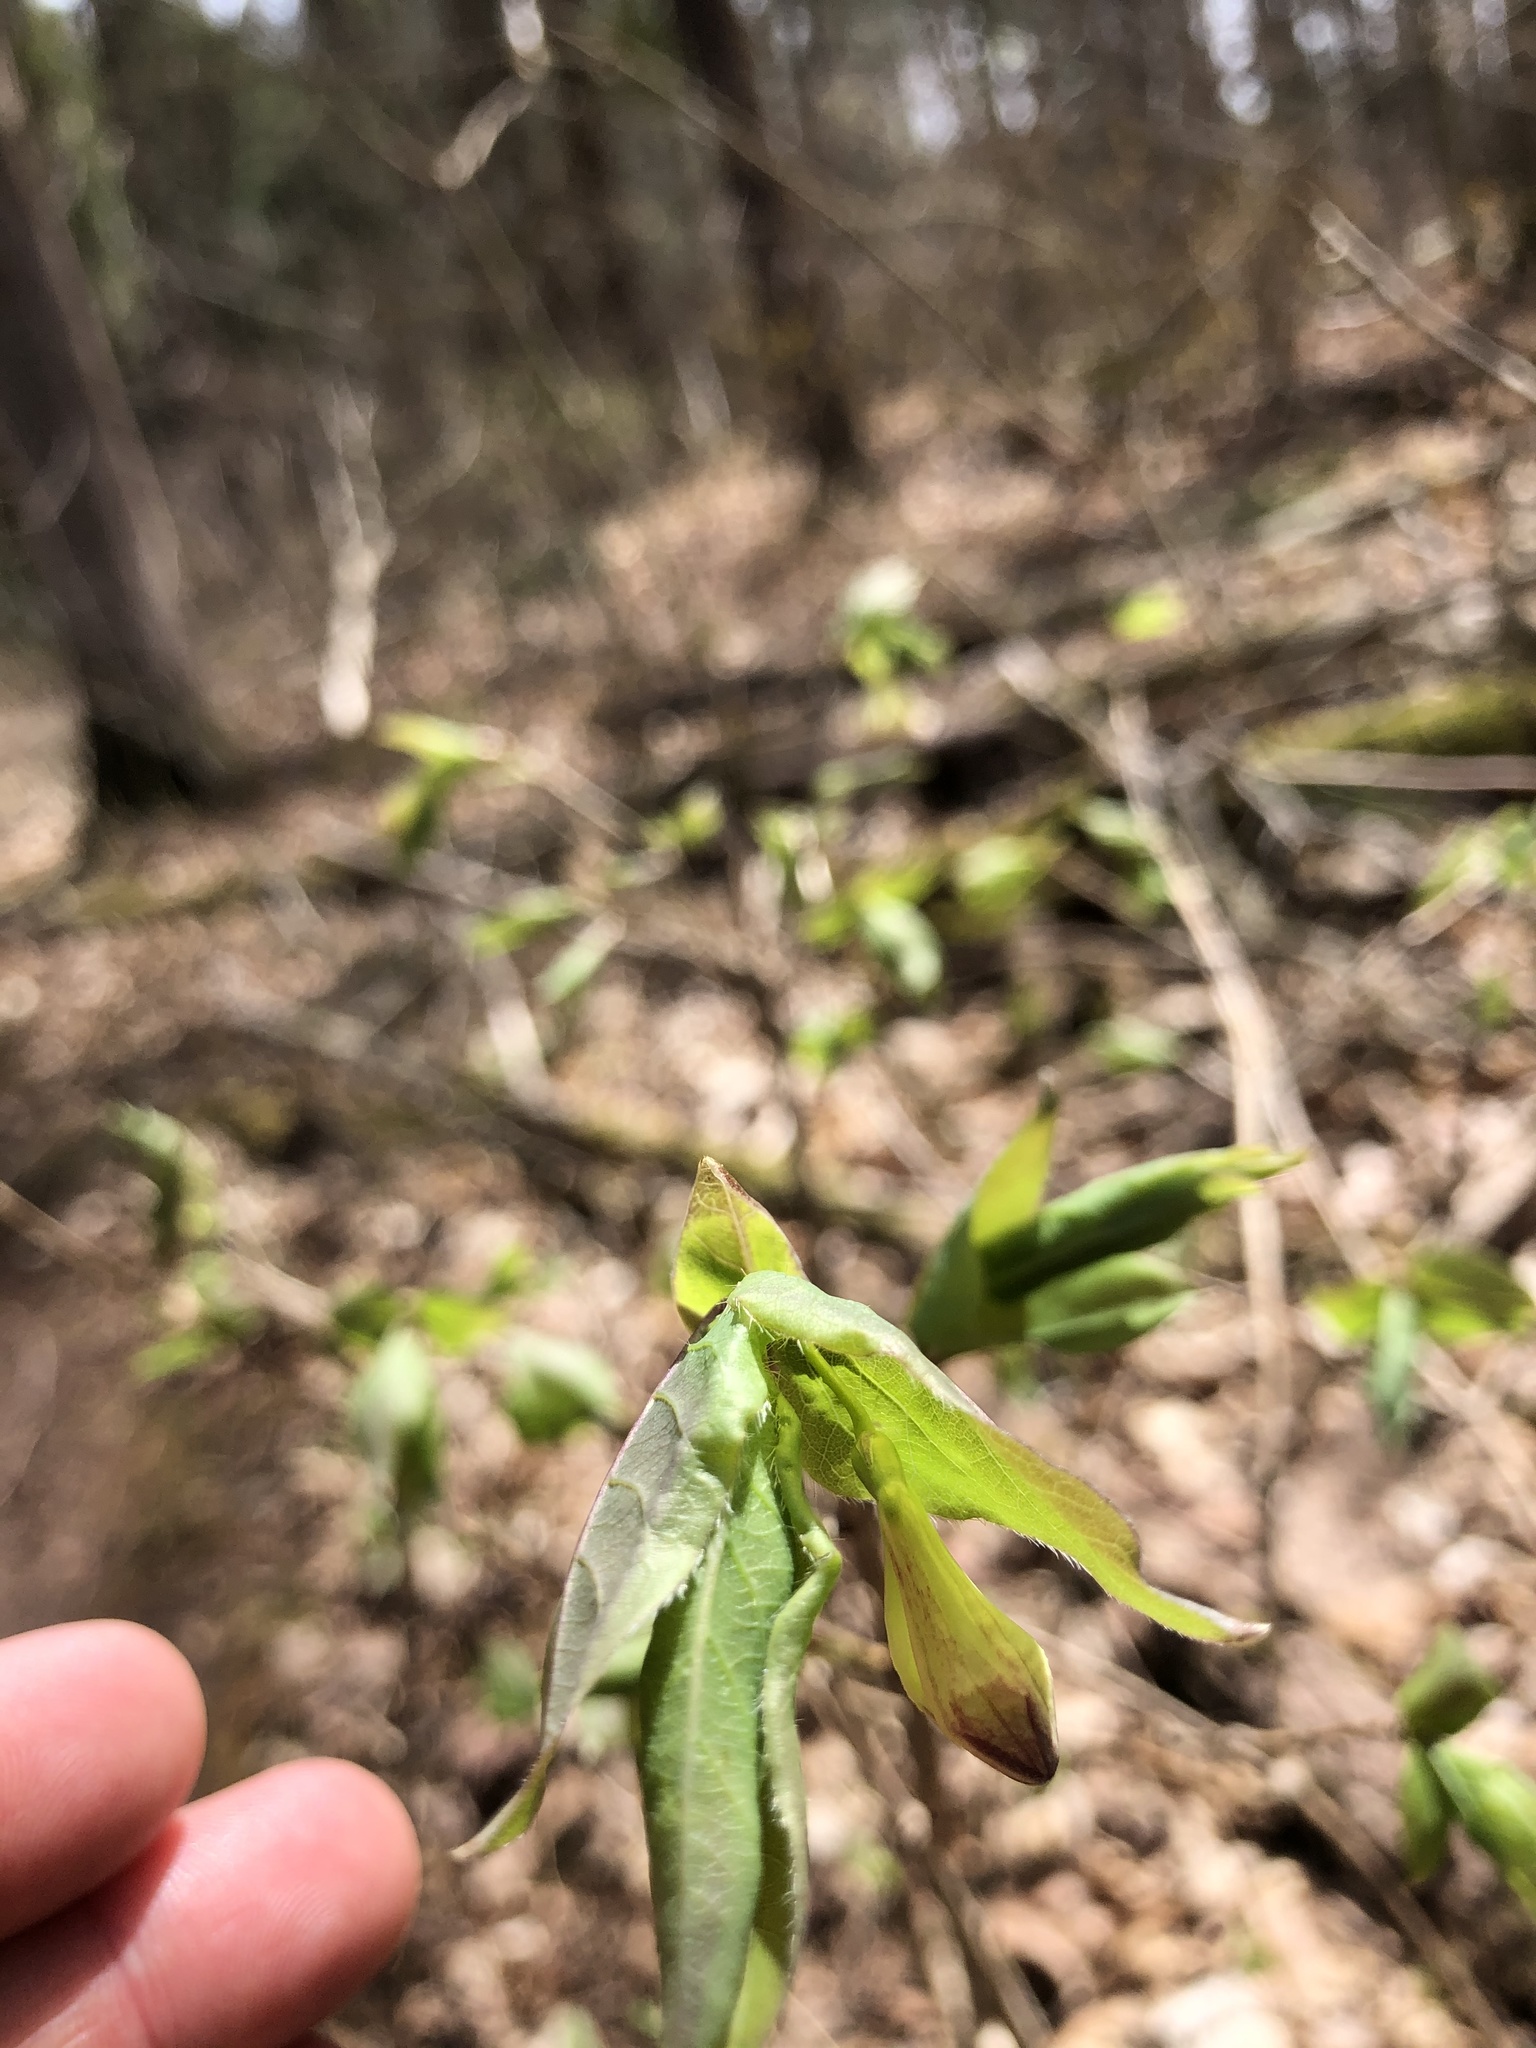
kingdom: Plantae
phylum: Tracheophyta
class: Magnoliopsida
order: Dipsacales
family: Caprifoliaceae
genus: Lonicera
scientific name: Lonicera canadensis
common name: American fly-honeysuckle
